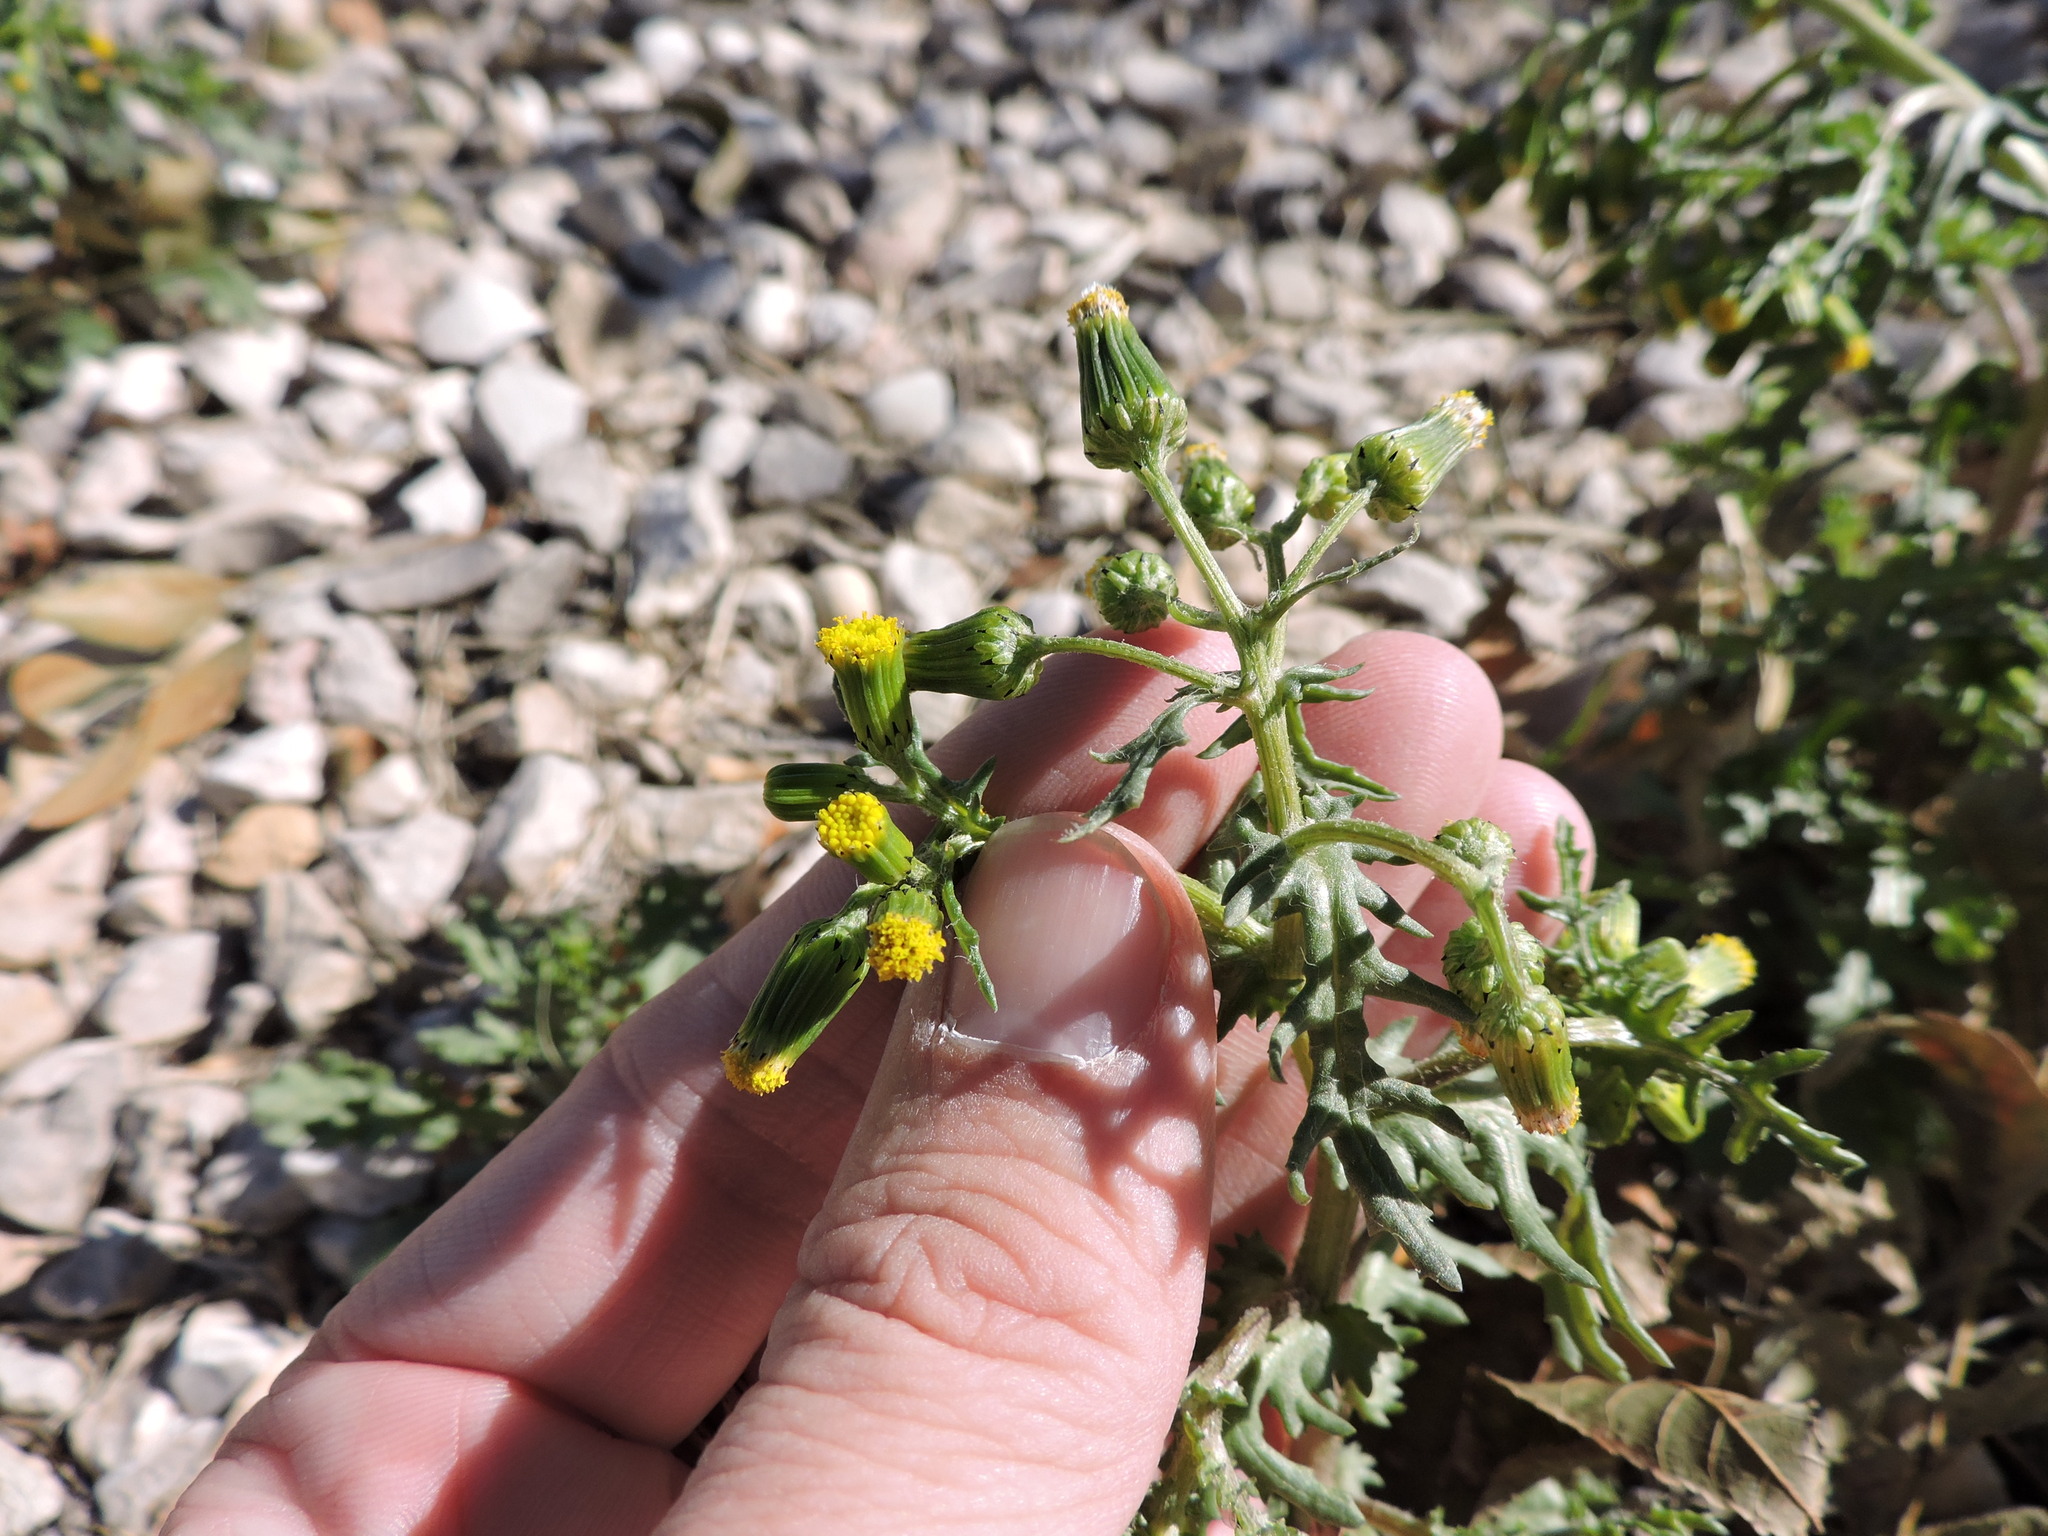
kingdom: Plantae
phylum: Tracheophyta
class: Magnoliopsida
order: Asterales
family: Asteraceae
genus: Senecio
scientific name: Senecio vulgaris
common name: Old-man-in-the-spring
